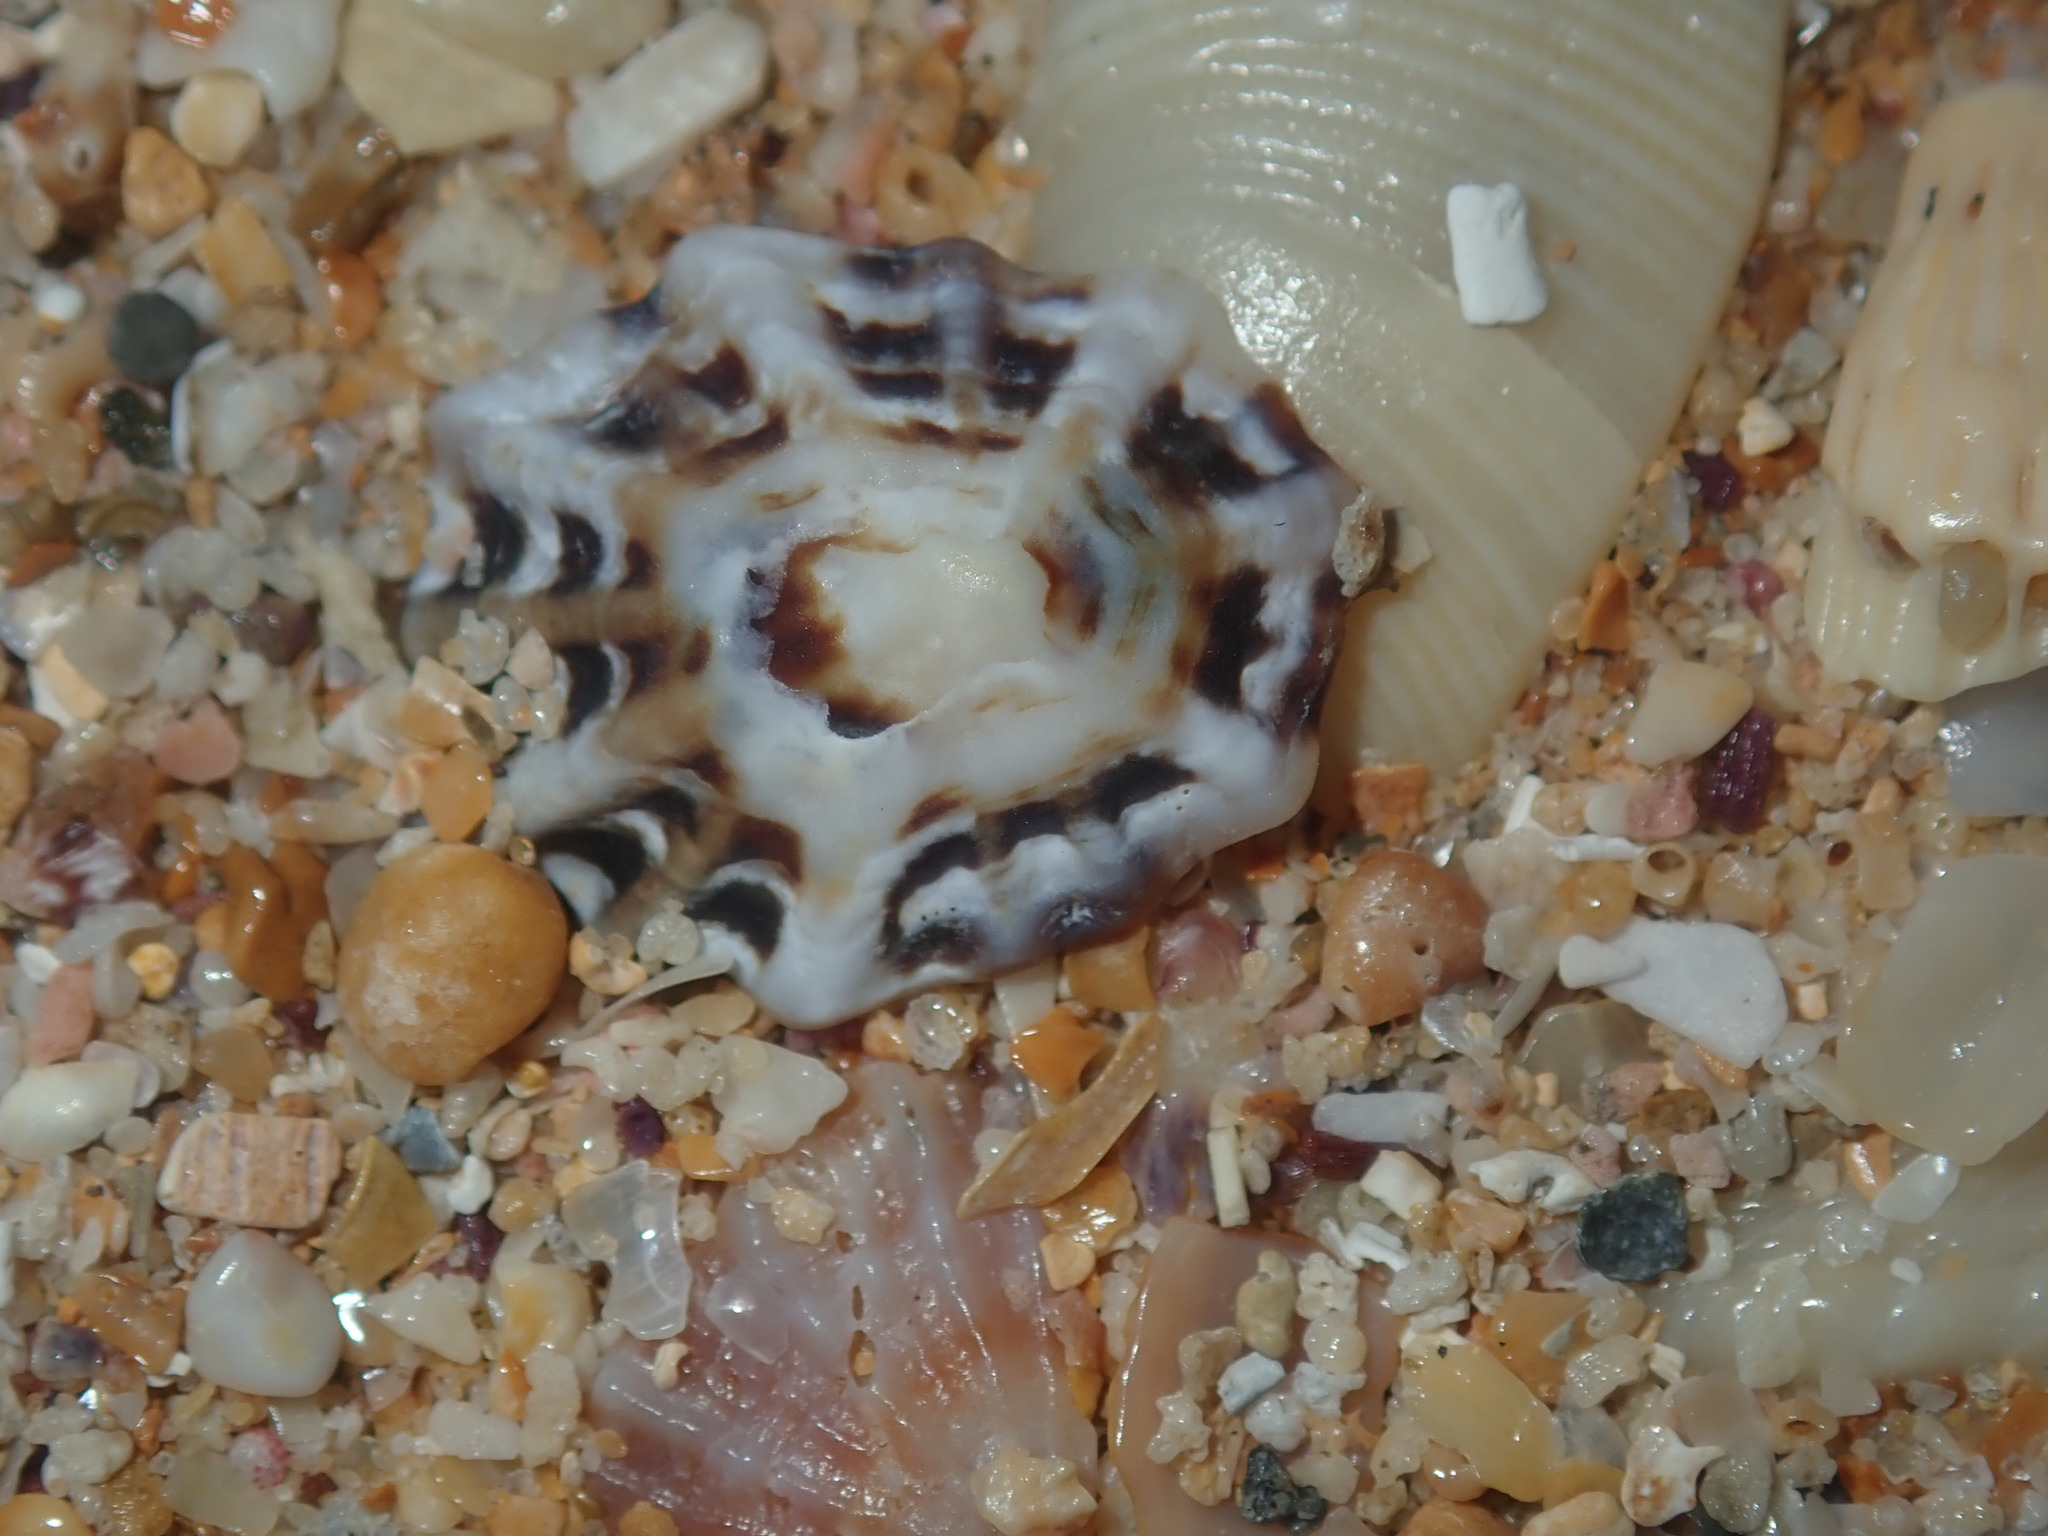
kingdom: Animalia
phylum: Mollusca
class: Gastropoda
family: Lottiidae
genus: Patelloida
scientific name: Patelloida alticostata
